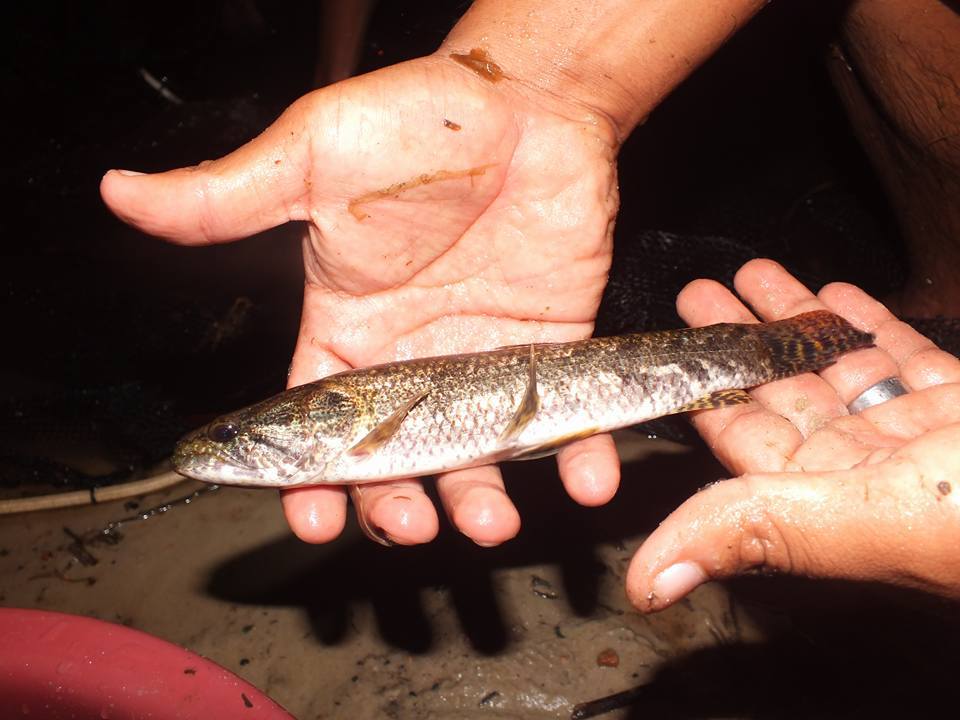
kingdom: Animalia
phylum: Chordata
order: Characiformes
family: Erythrinidae
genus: Hoplias
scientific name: Hoplias malabaricus
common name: Trahira
